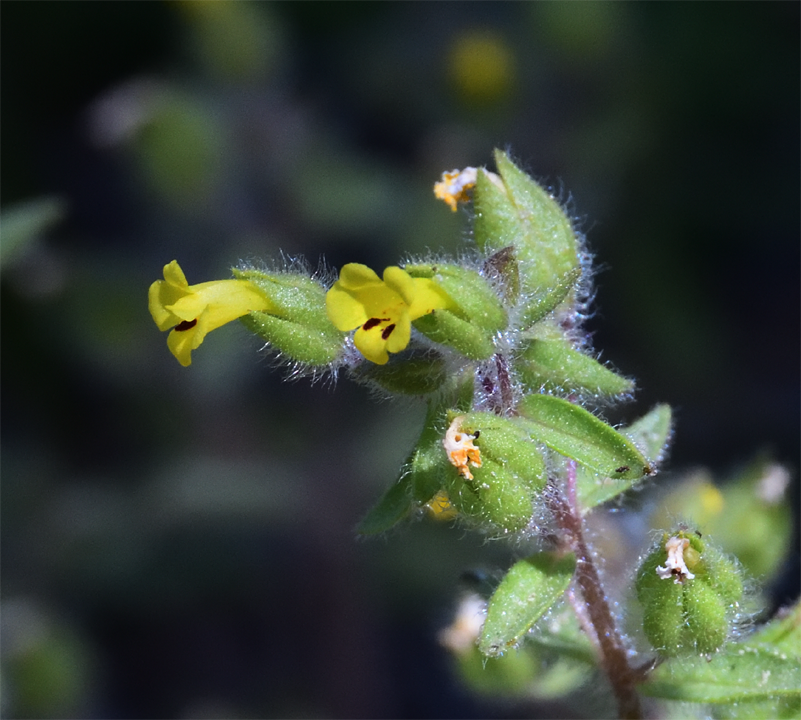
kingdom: Plantae
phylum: Tracheophyta
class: Magnoliopsida
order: Lamiales
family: Phrymaceae
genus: Mimetanthe
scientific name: Mimetanthe pilosa
